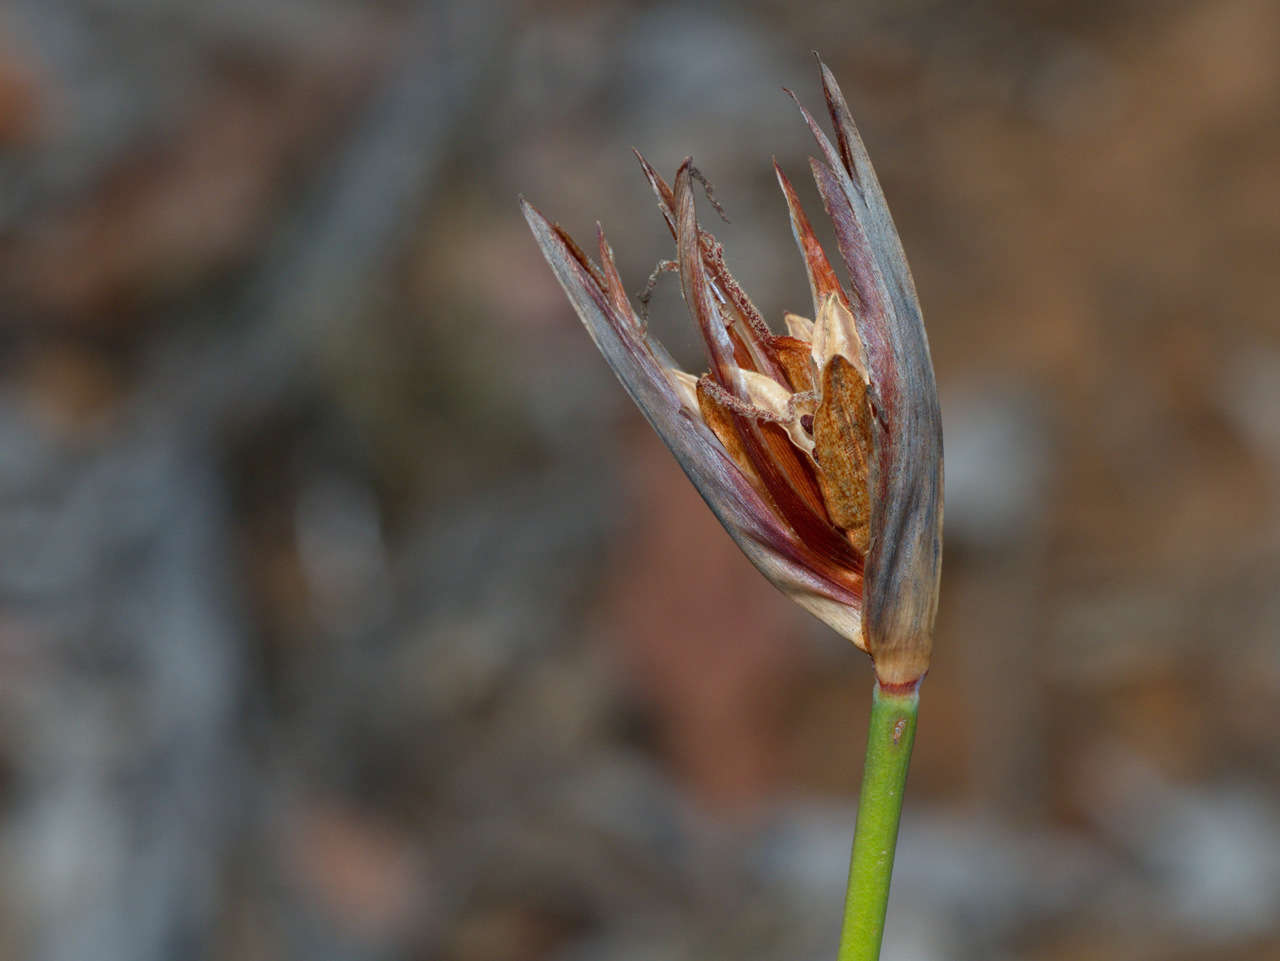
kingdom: Plantae
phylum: Tracheophyta
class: Liliopsida
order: Asparagales
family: Iridaceae
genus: Patersonia
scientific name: Patersonia occidentalis
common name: Long purple-flag
